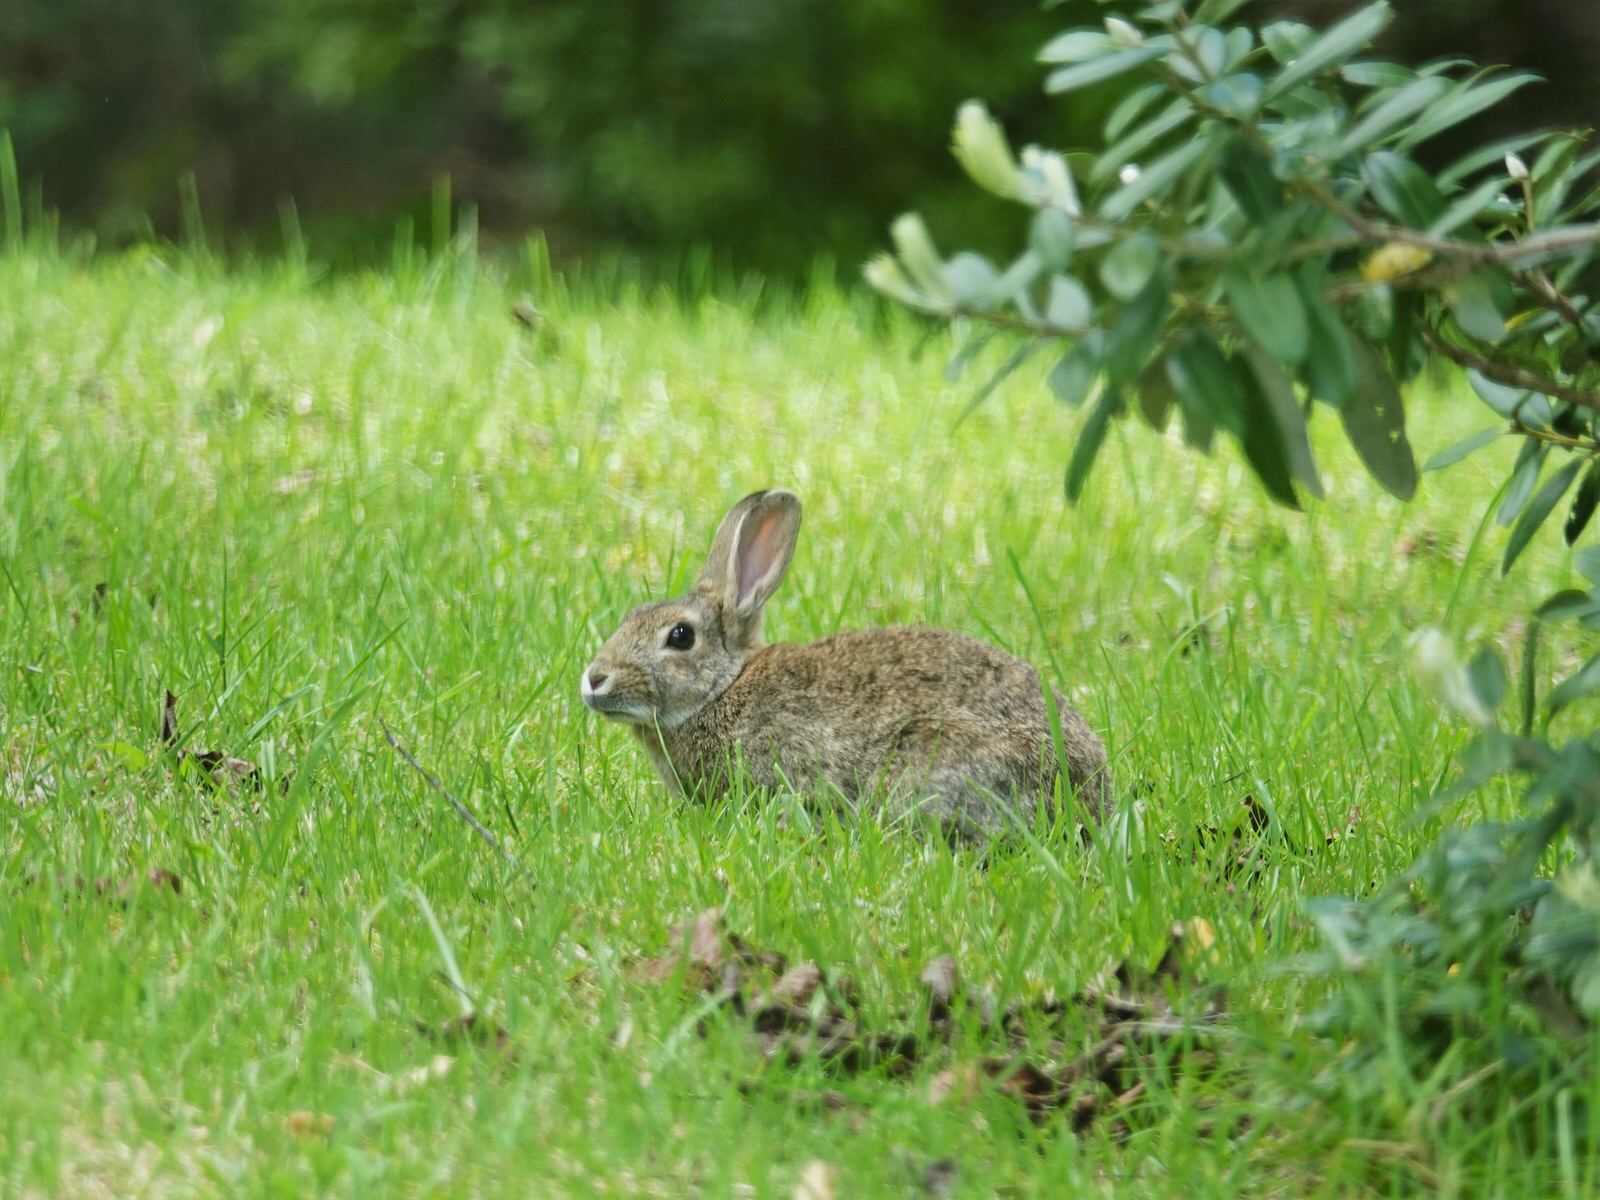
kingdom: Animalia
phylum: Chordata
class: Mammalia
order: Lagomorpha
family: Leporidae
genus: Oryctolagus
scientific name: Oryctolagus cuniculus
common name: European rabbit
